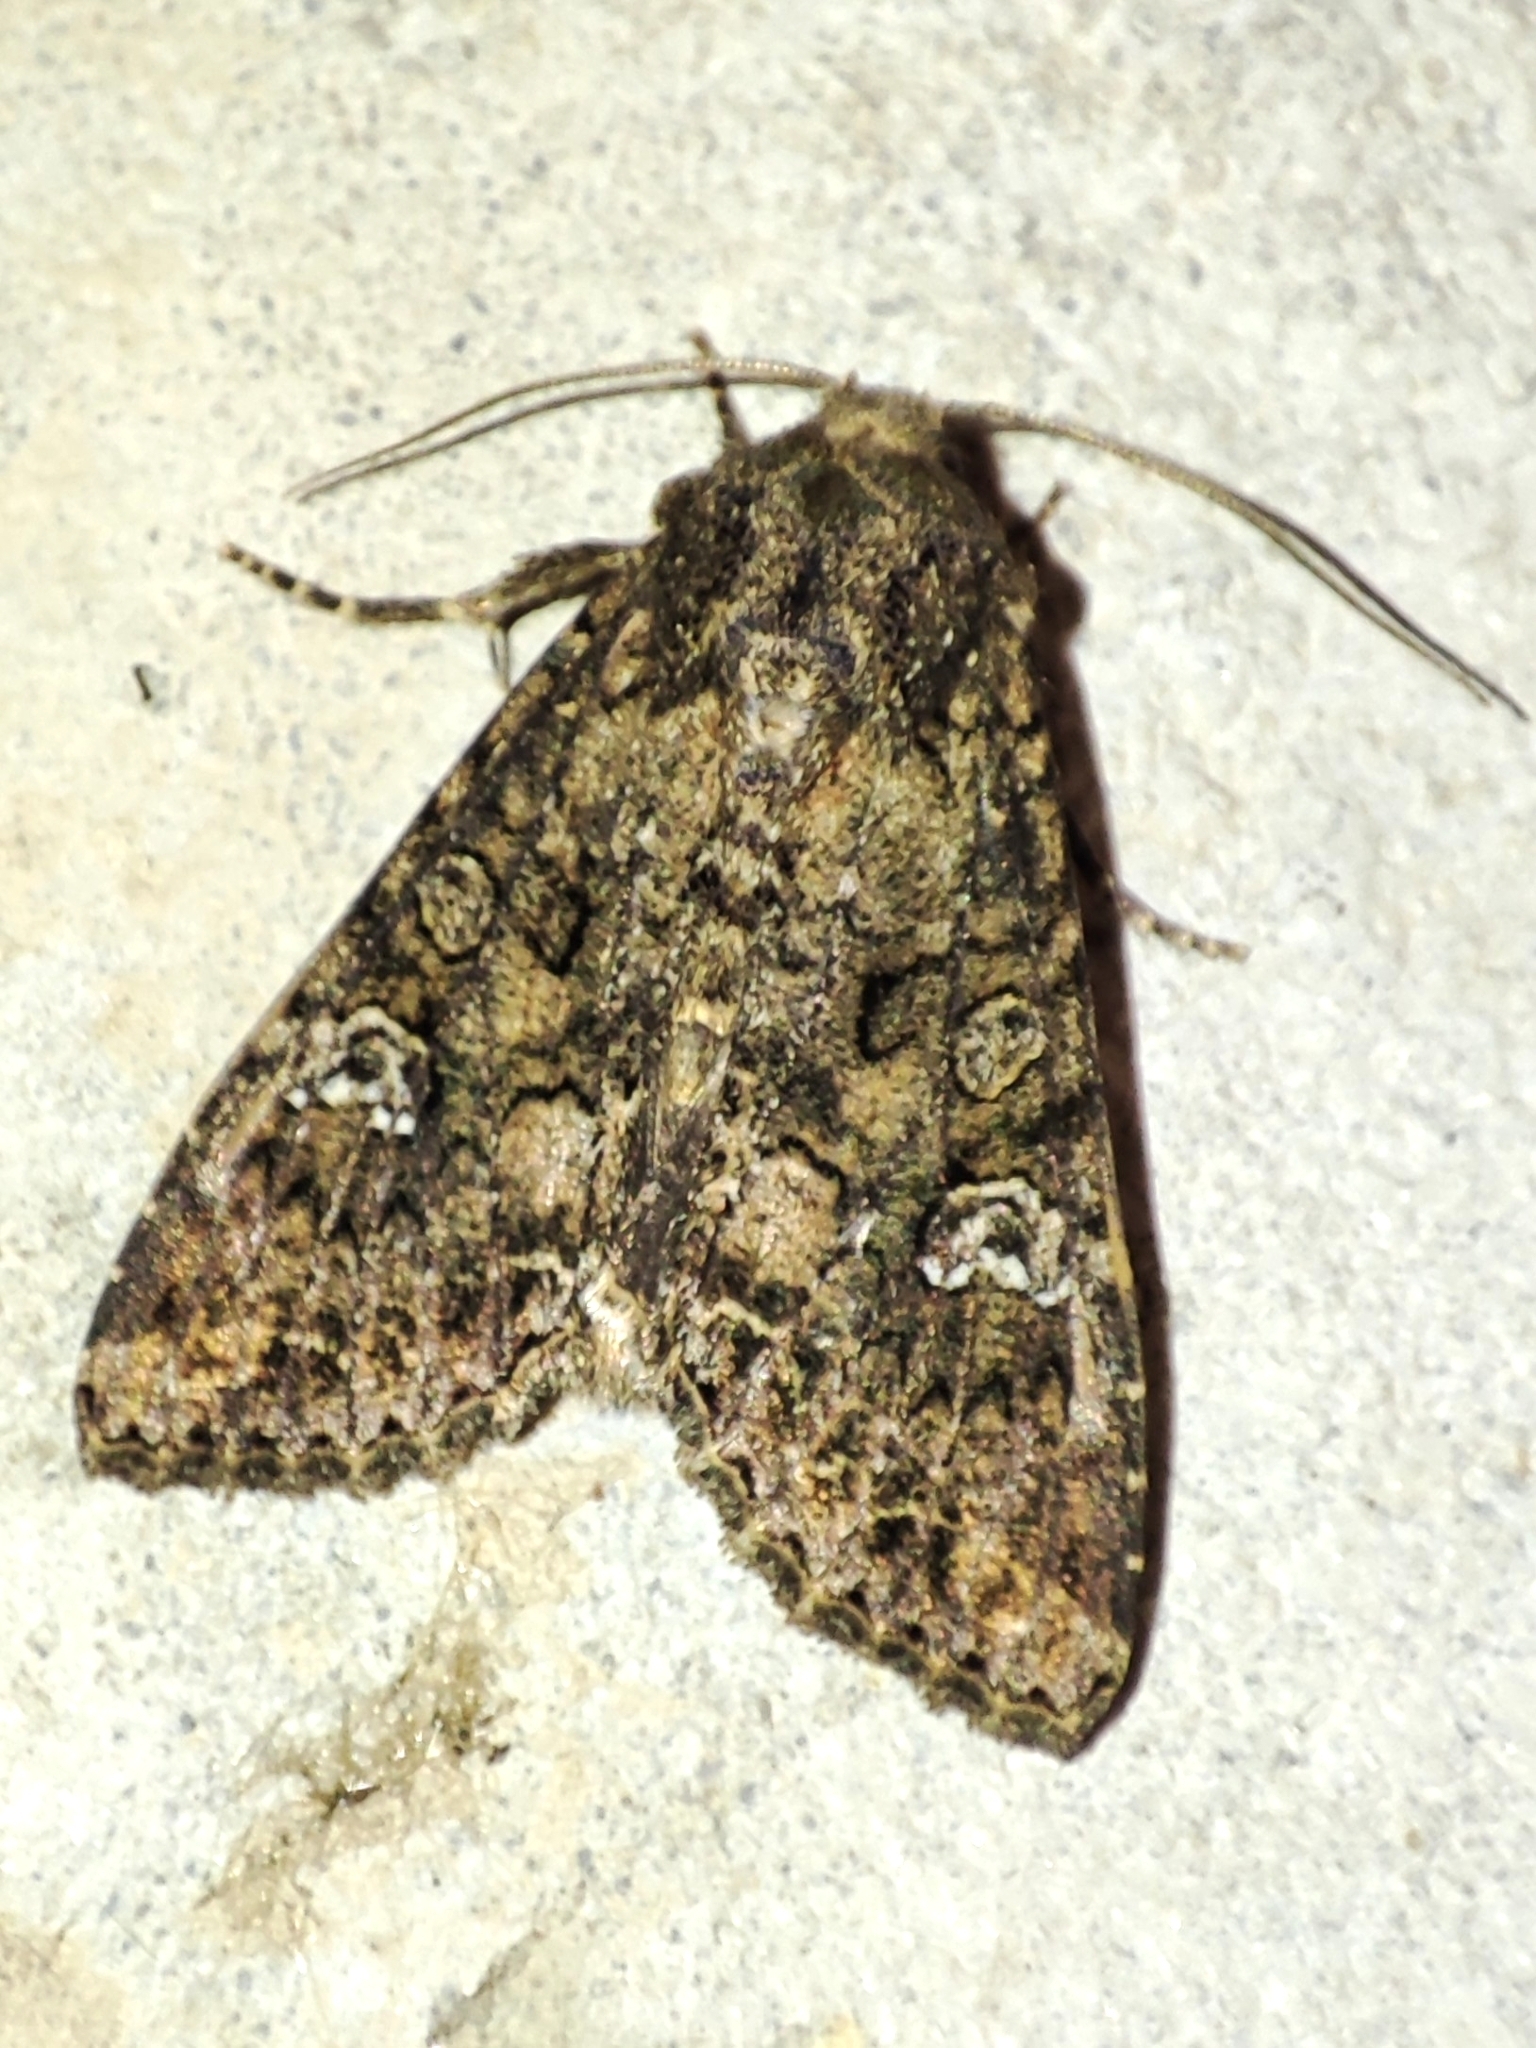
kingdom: Animalia
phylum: Arthropoda
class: Insecta
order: Lepidoptera
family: Noctuidae
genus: Mamestra
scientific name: Mamestra brassicae
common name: Cabbage moth
